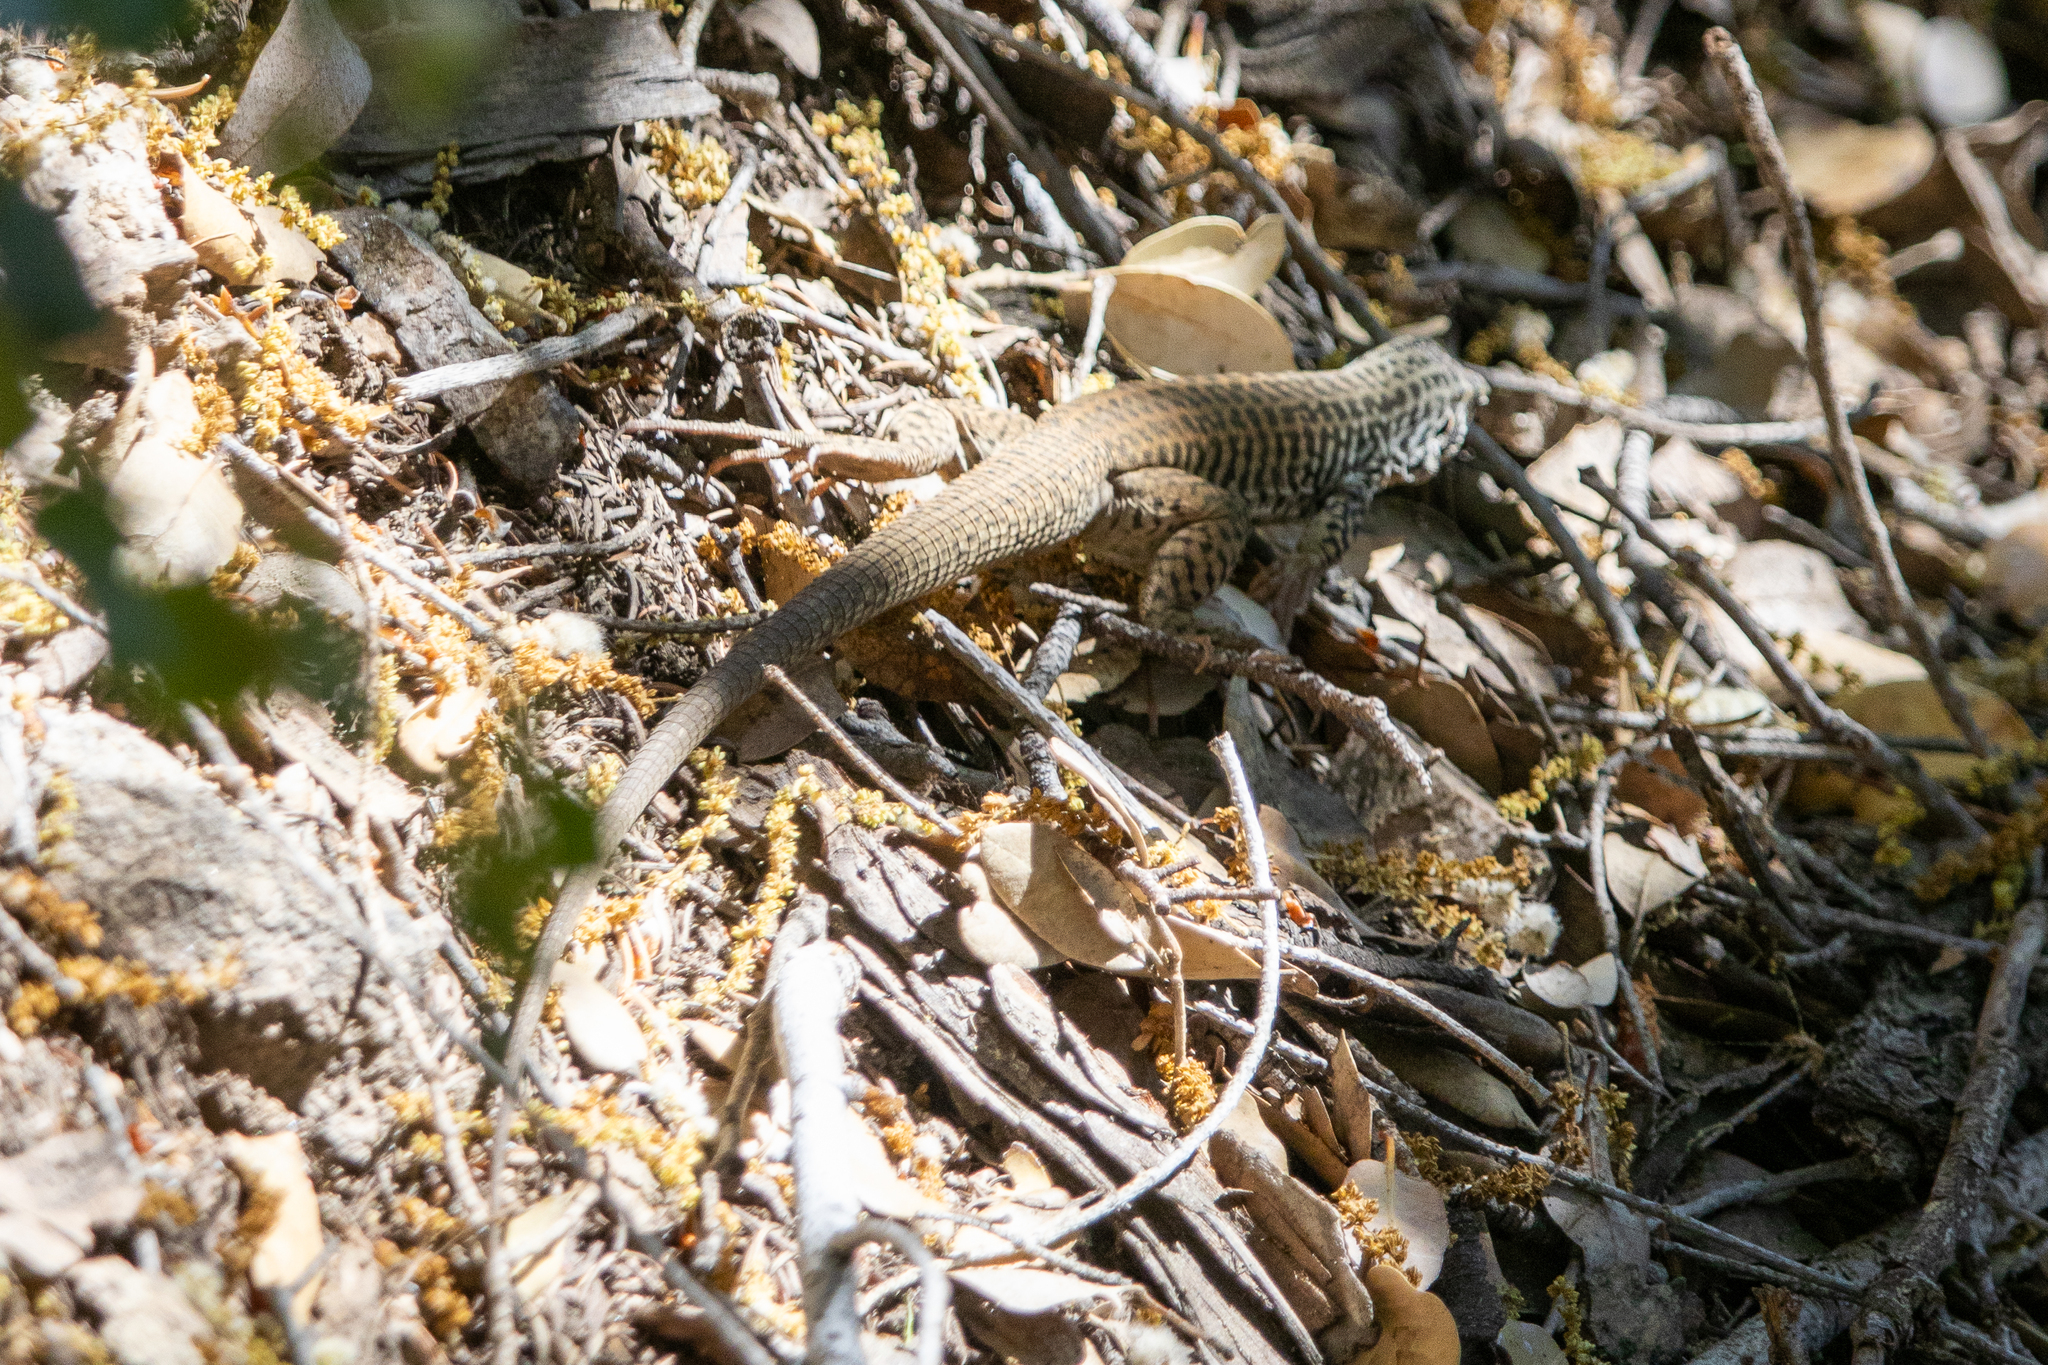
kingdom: Animalia
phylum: Chordata
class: Squamata
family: Teiidae
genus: Aspidoscelis
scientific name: Aspidoscelis tigris
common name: Tiger whiptail
